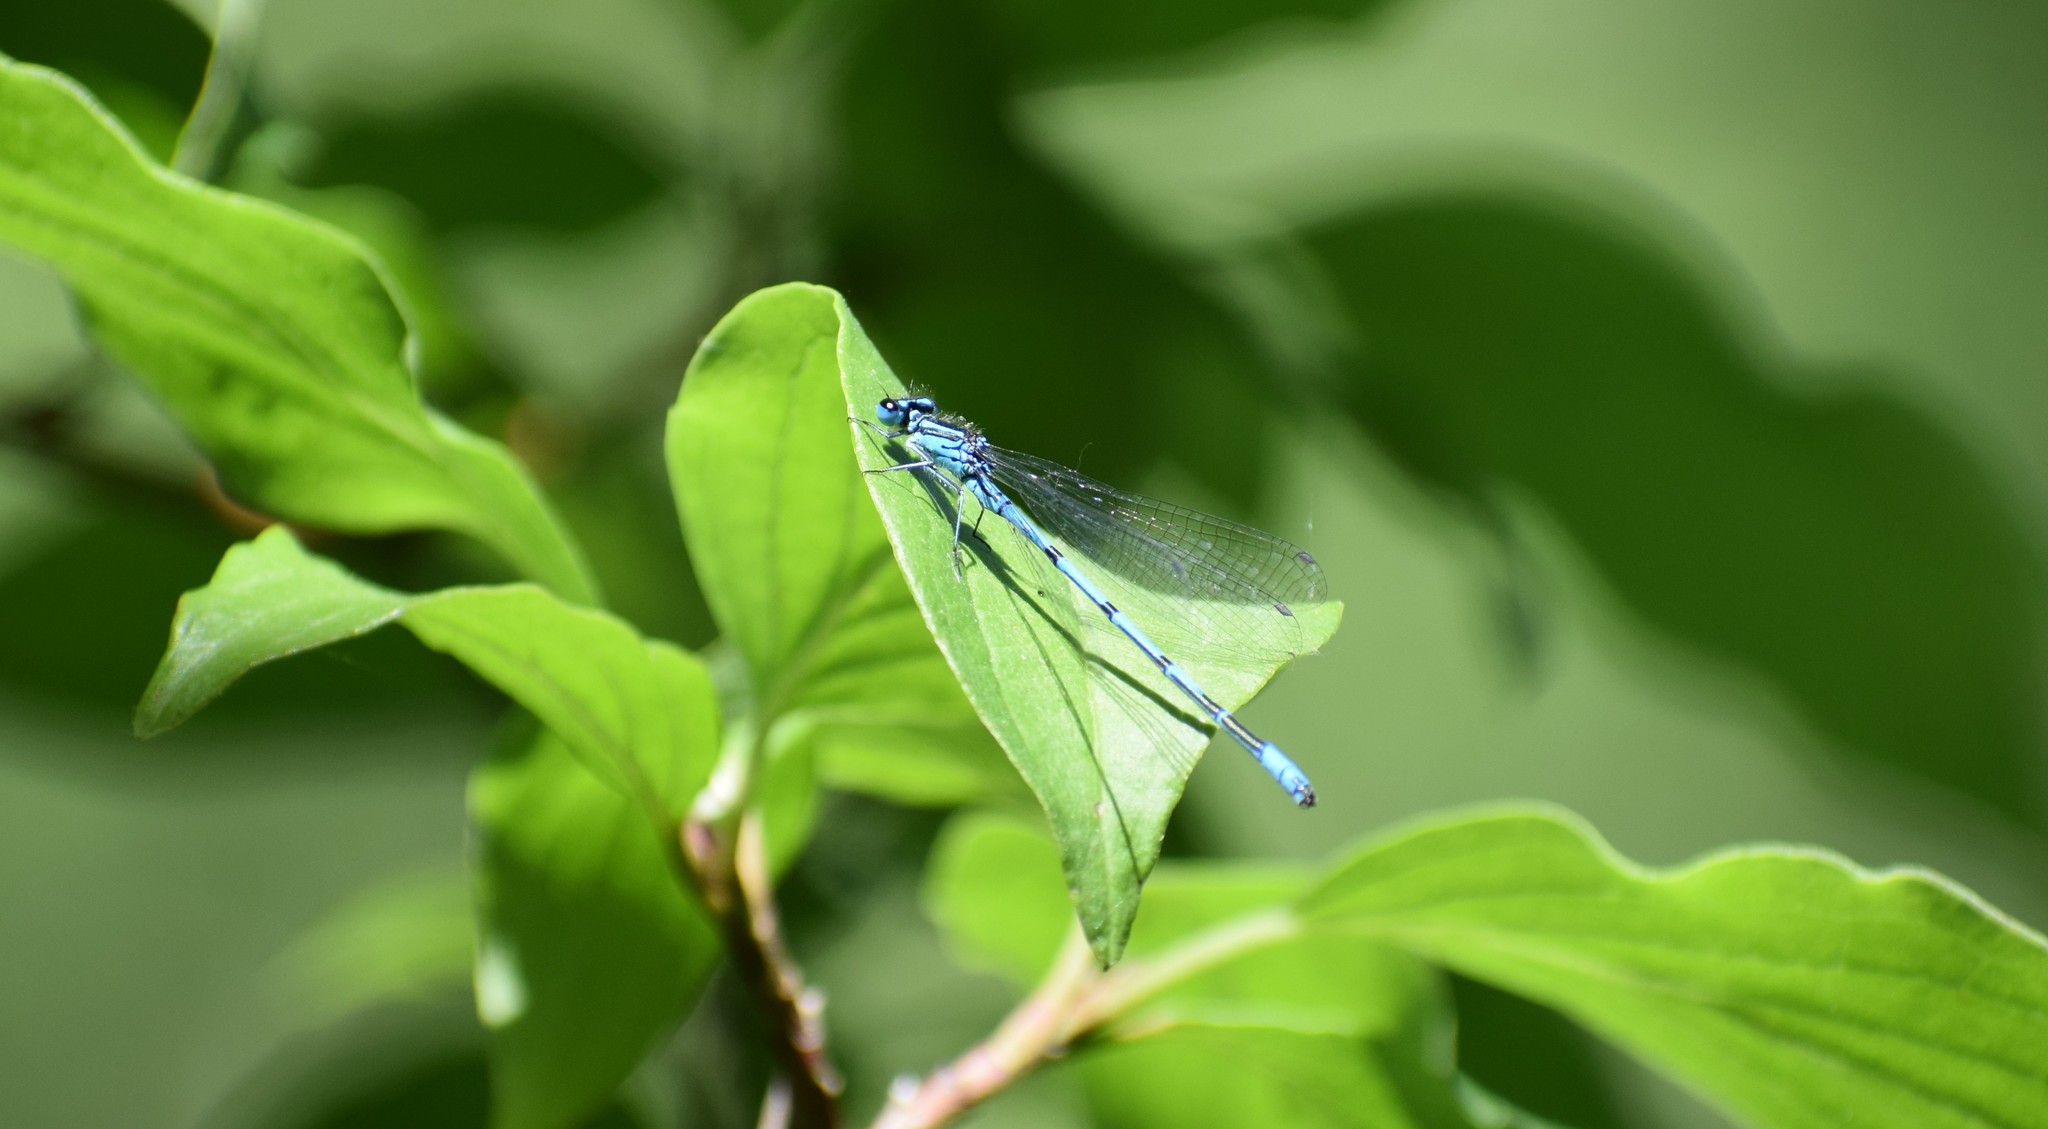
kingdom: Animalia
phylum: Arthropoda
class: Insecta
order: Odonata
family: Coenagrionidae
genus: Coenagrion
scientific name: Coenagrion puella
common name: Azure damselfly
